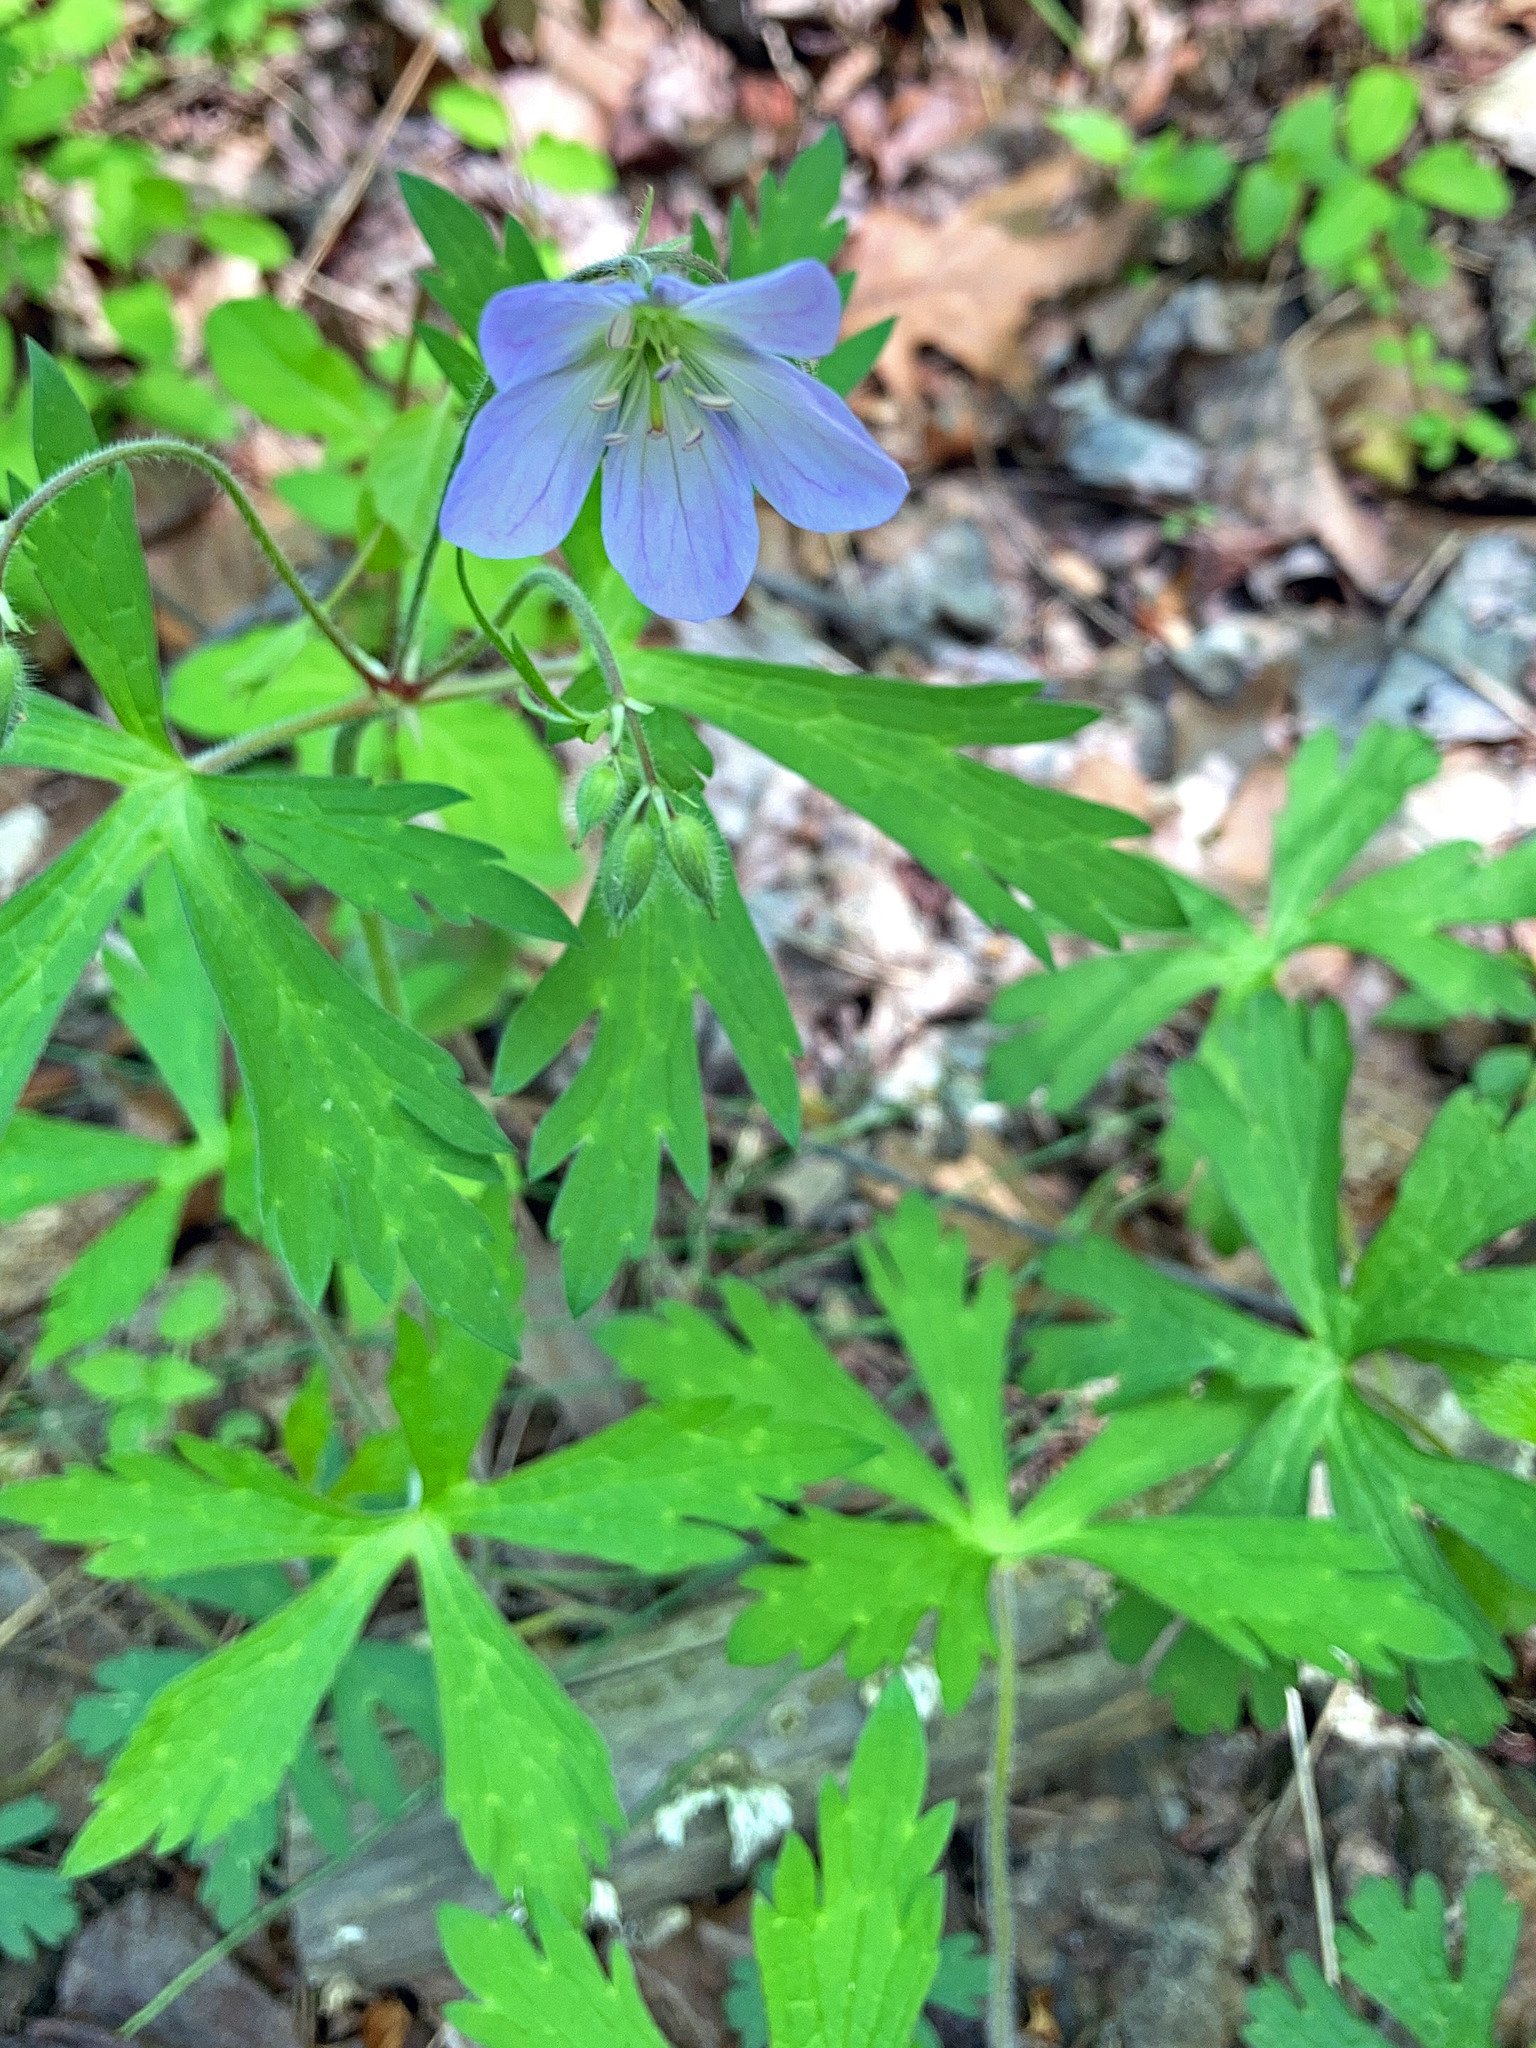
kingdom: Plantae
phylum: Tracheophyta
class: Magnoliopsida
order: Geraniales
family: Geraniaceae
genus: Geranium
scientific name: Geranium maculatum
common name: Spotted geranium
